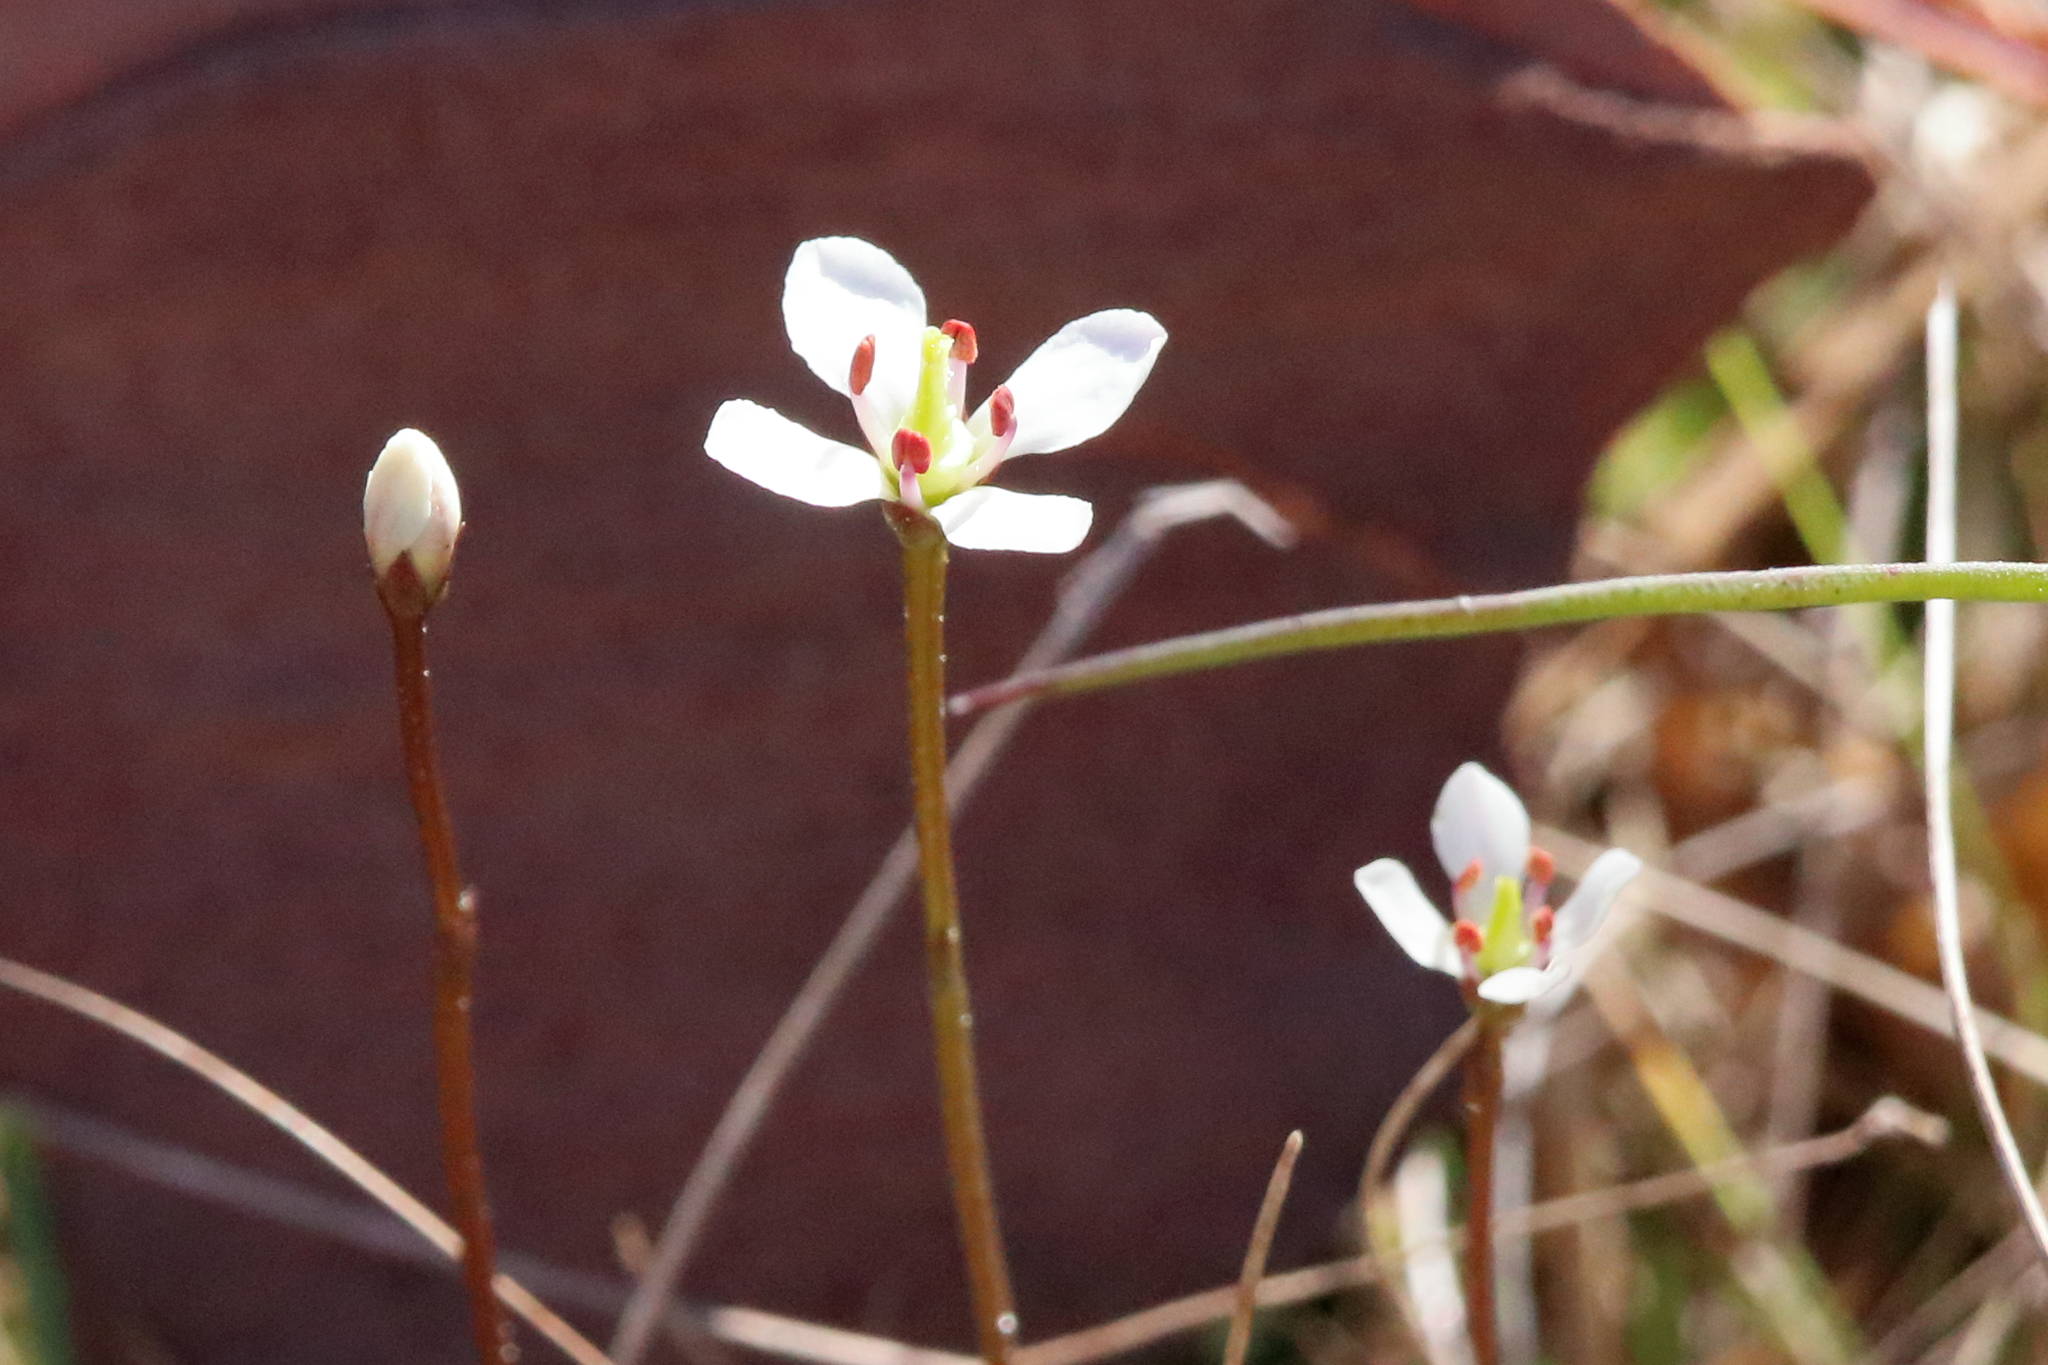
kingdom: Plantae
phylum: Tracheophyta
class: Magnoliopsida
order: Gentianales
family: Gentianaceae
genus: Bartonia
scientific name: Bartonia verna
